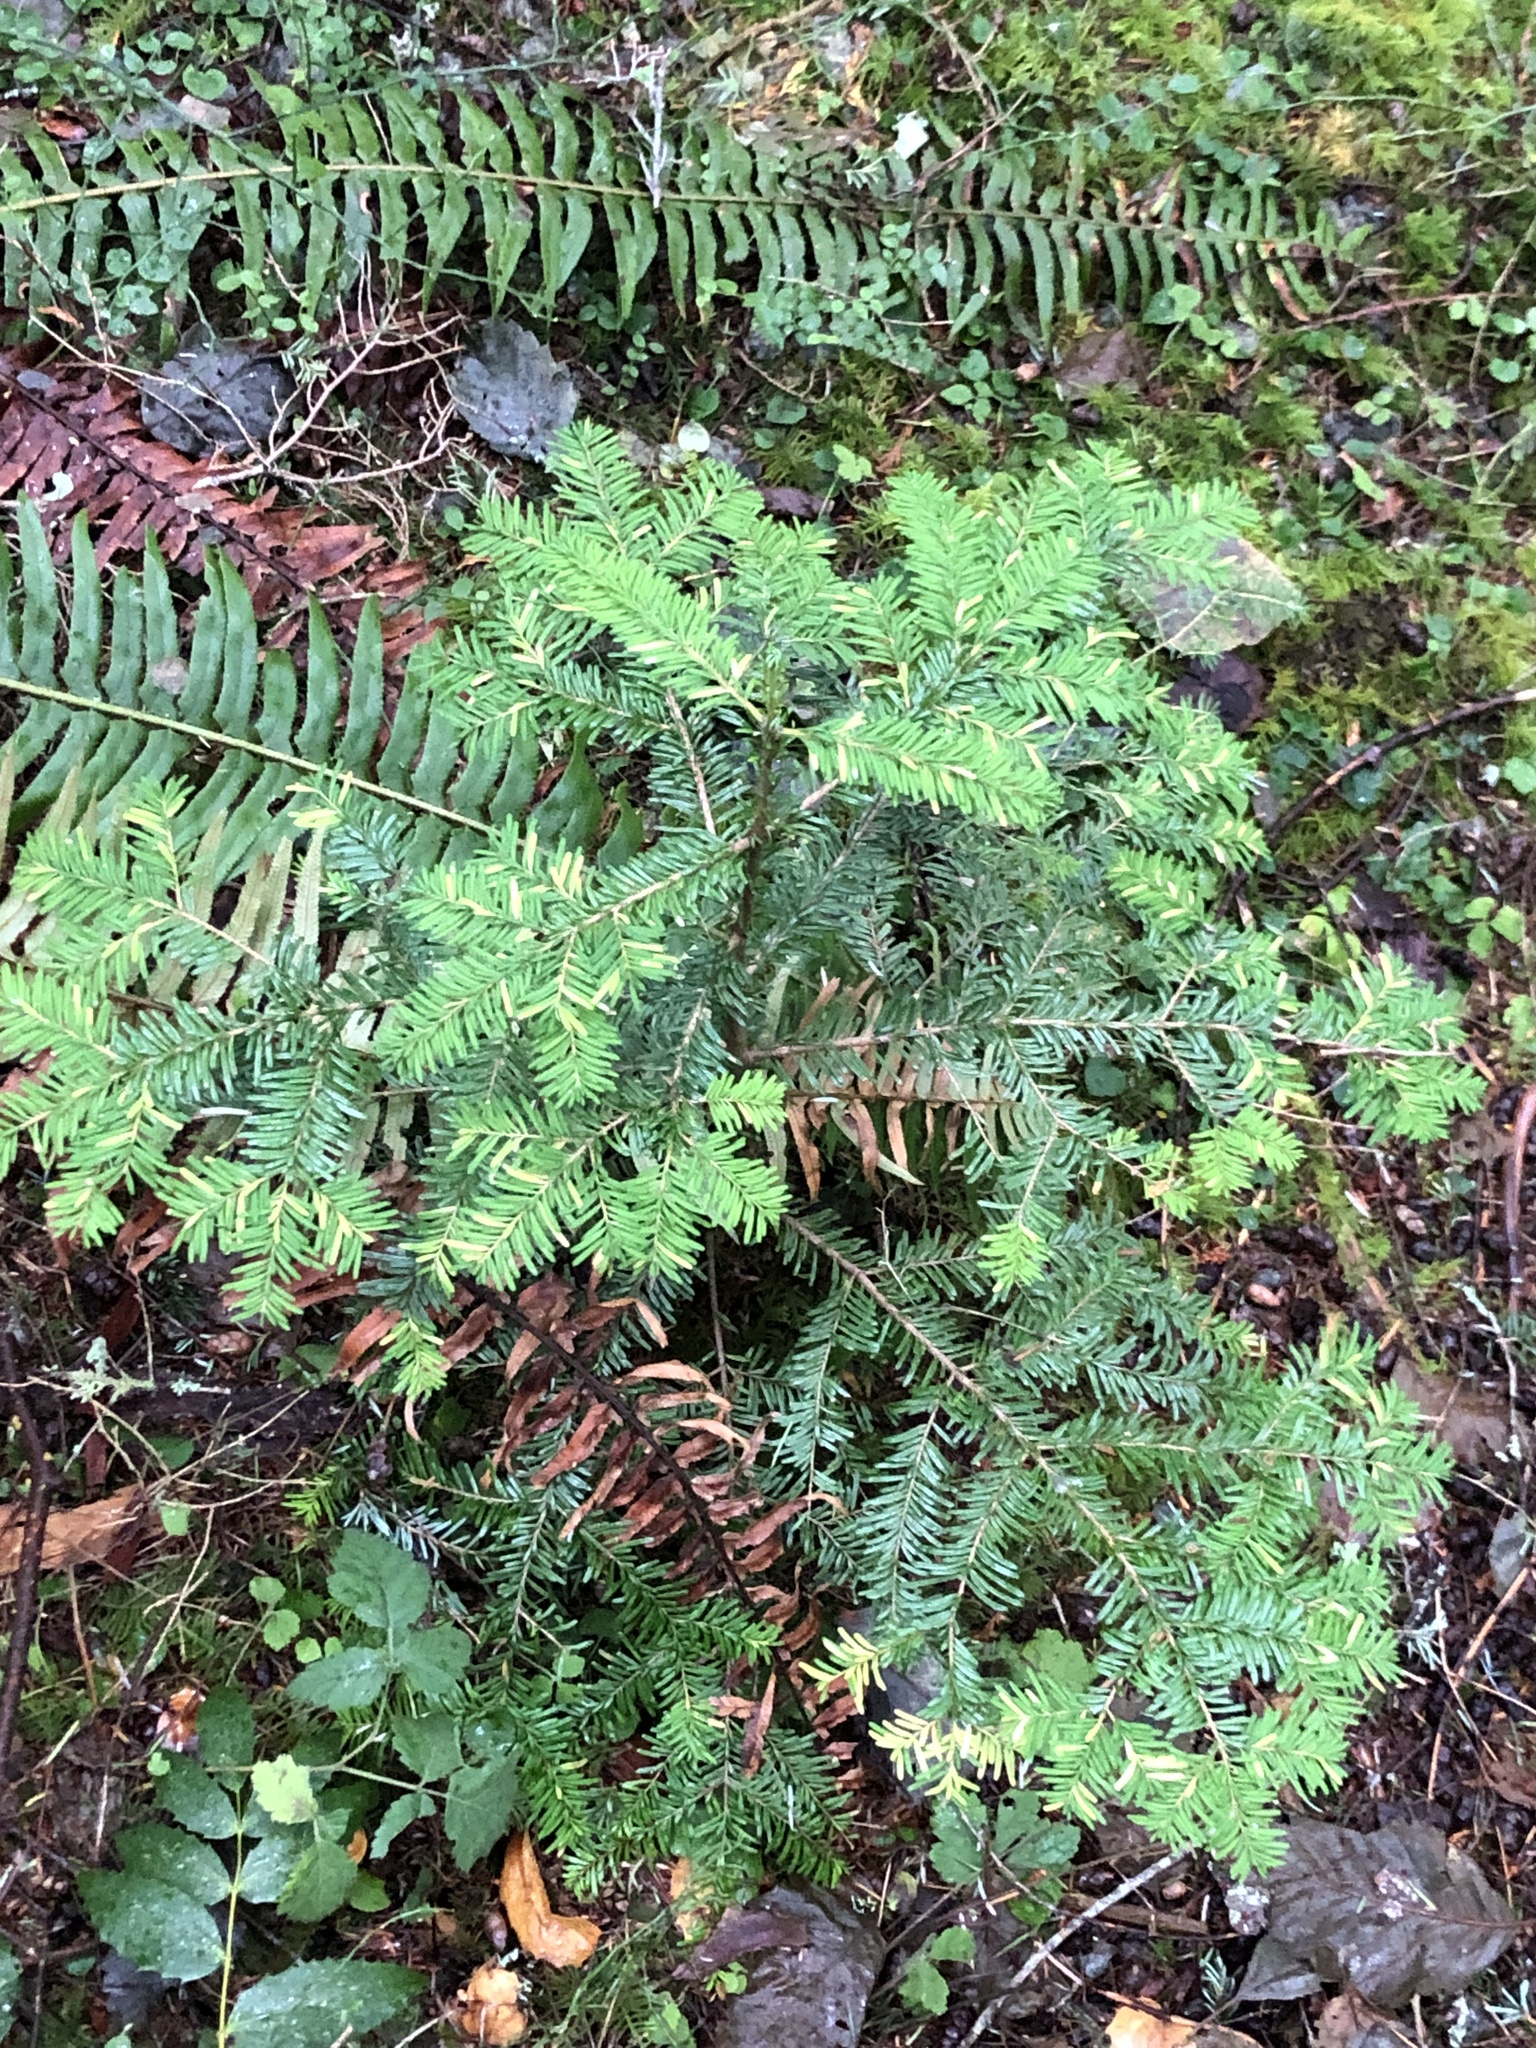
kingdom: Plantae
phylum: Tracheophyta
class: Pinopsida
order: Pinales
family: Pinaceae
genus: Abies
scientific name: Abies amabilis
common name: Pacific silver fir
